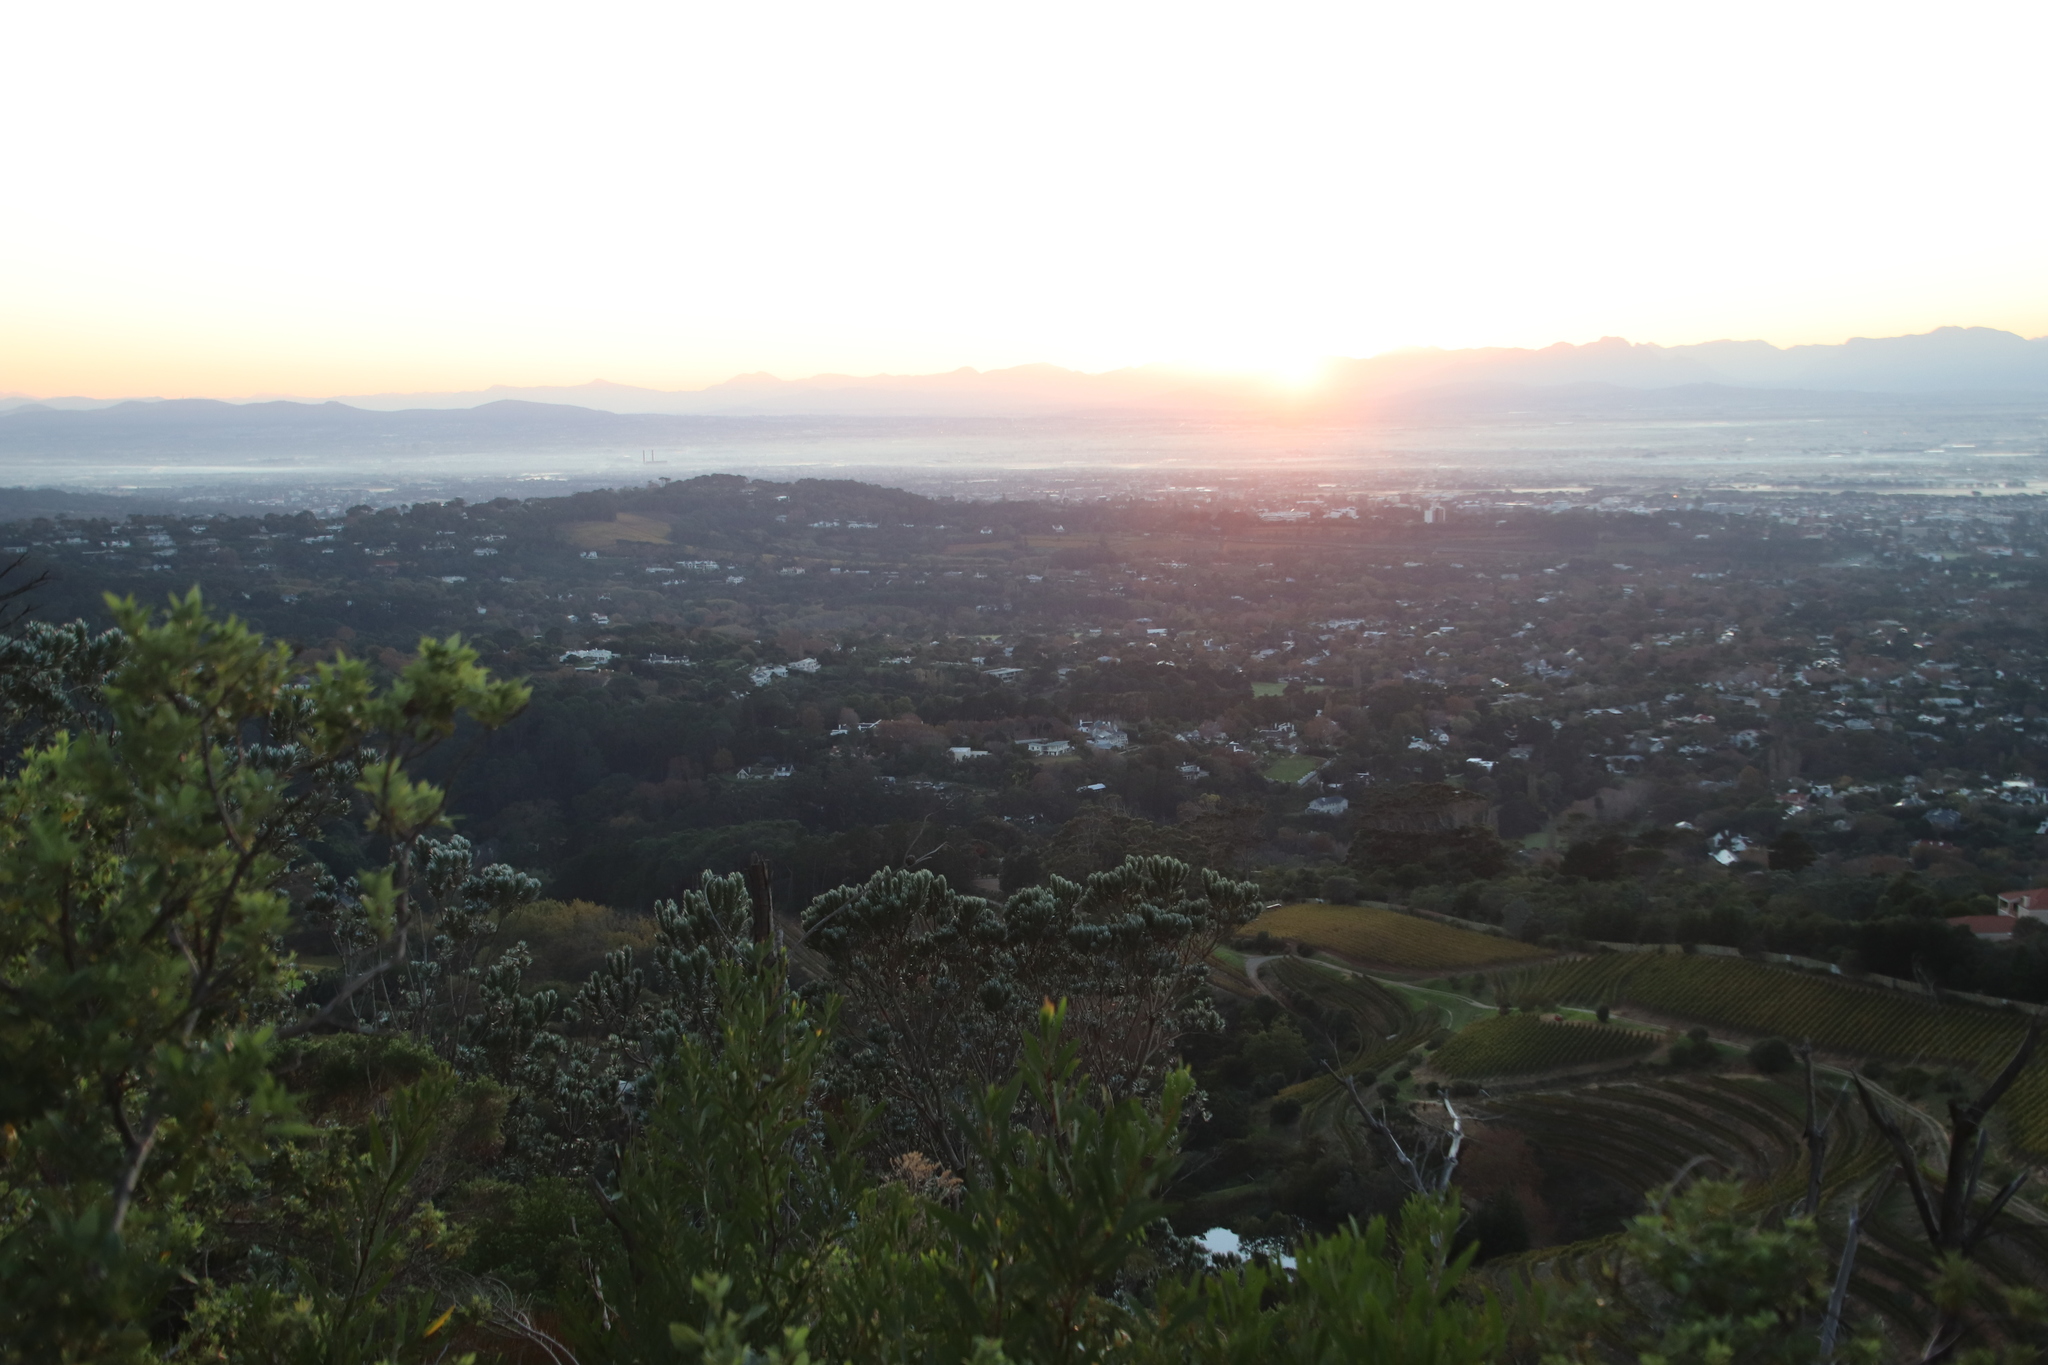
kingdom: Plantae
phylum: Tracheophyta
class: Magnoliopsida
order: Proteales
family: Proteaceae
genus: Leucadendron
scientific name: Leucadendron argenteum
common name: Cape silver tree
